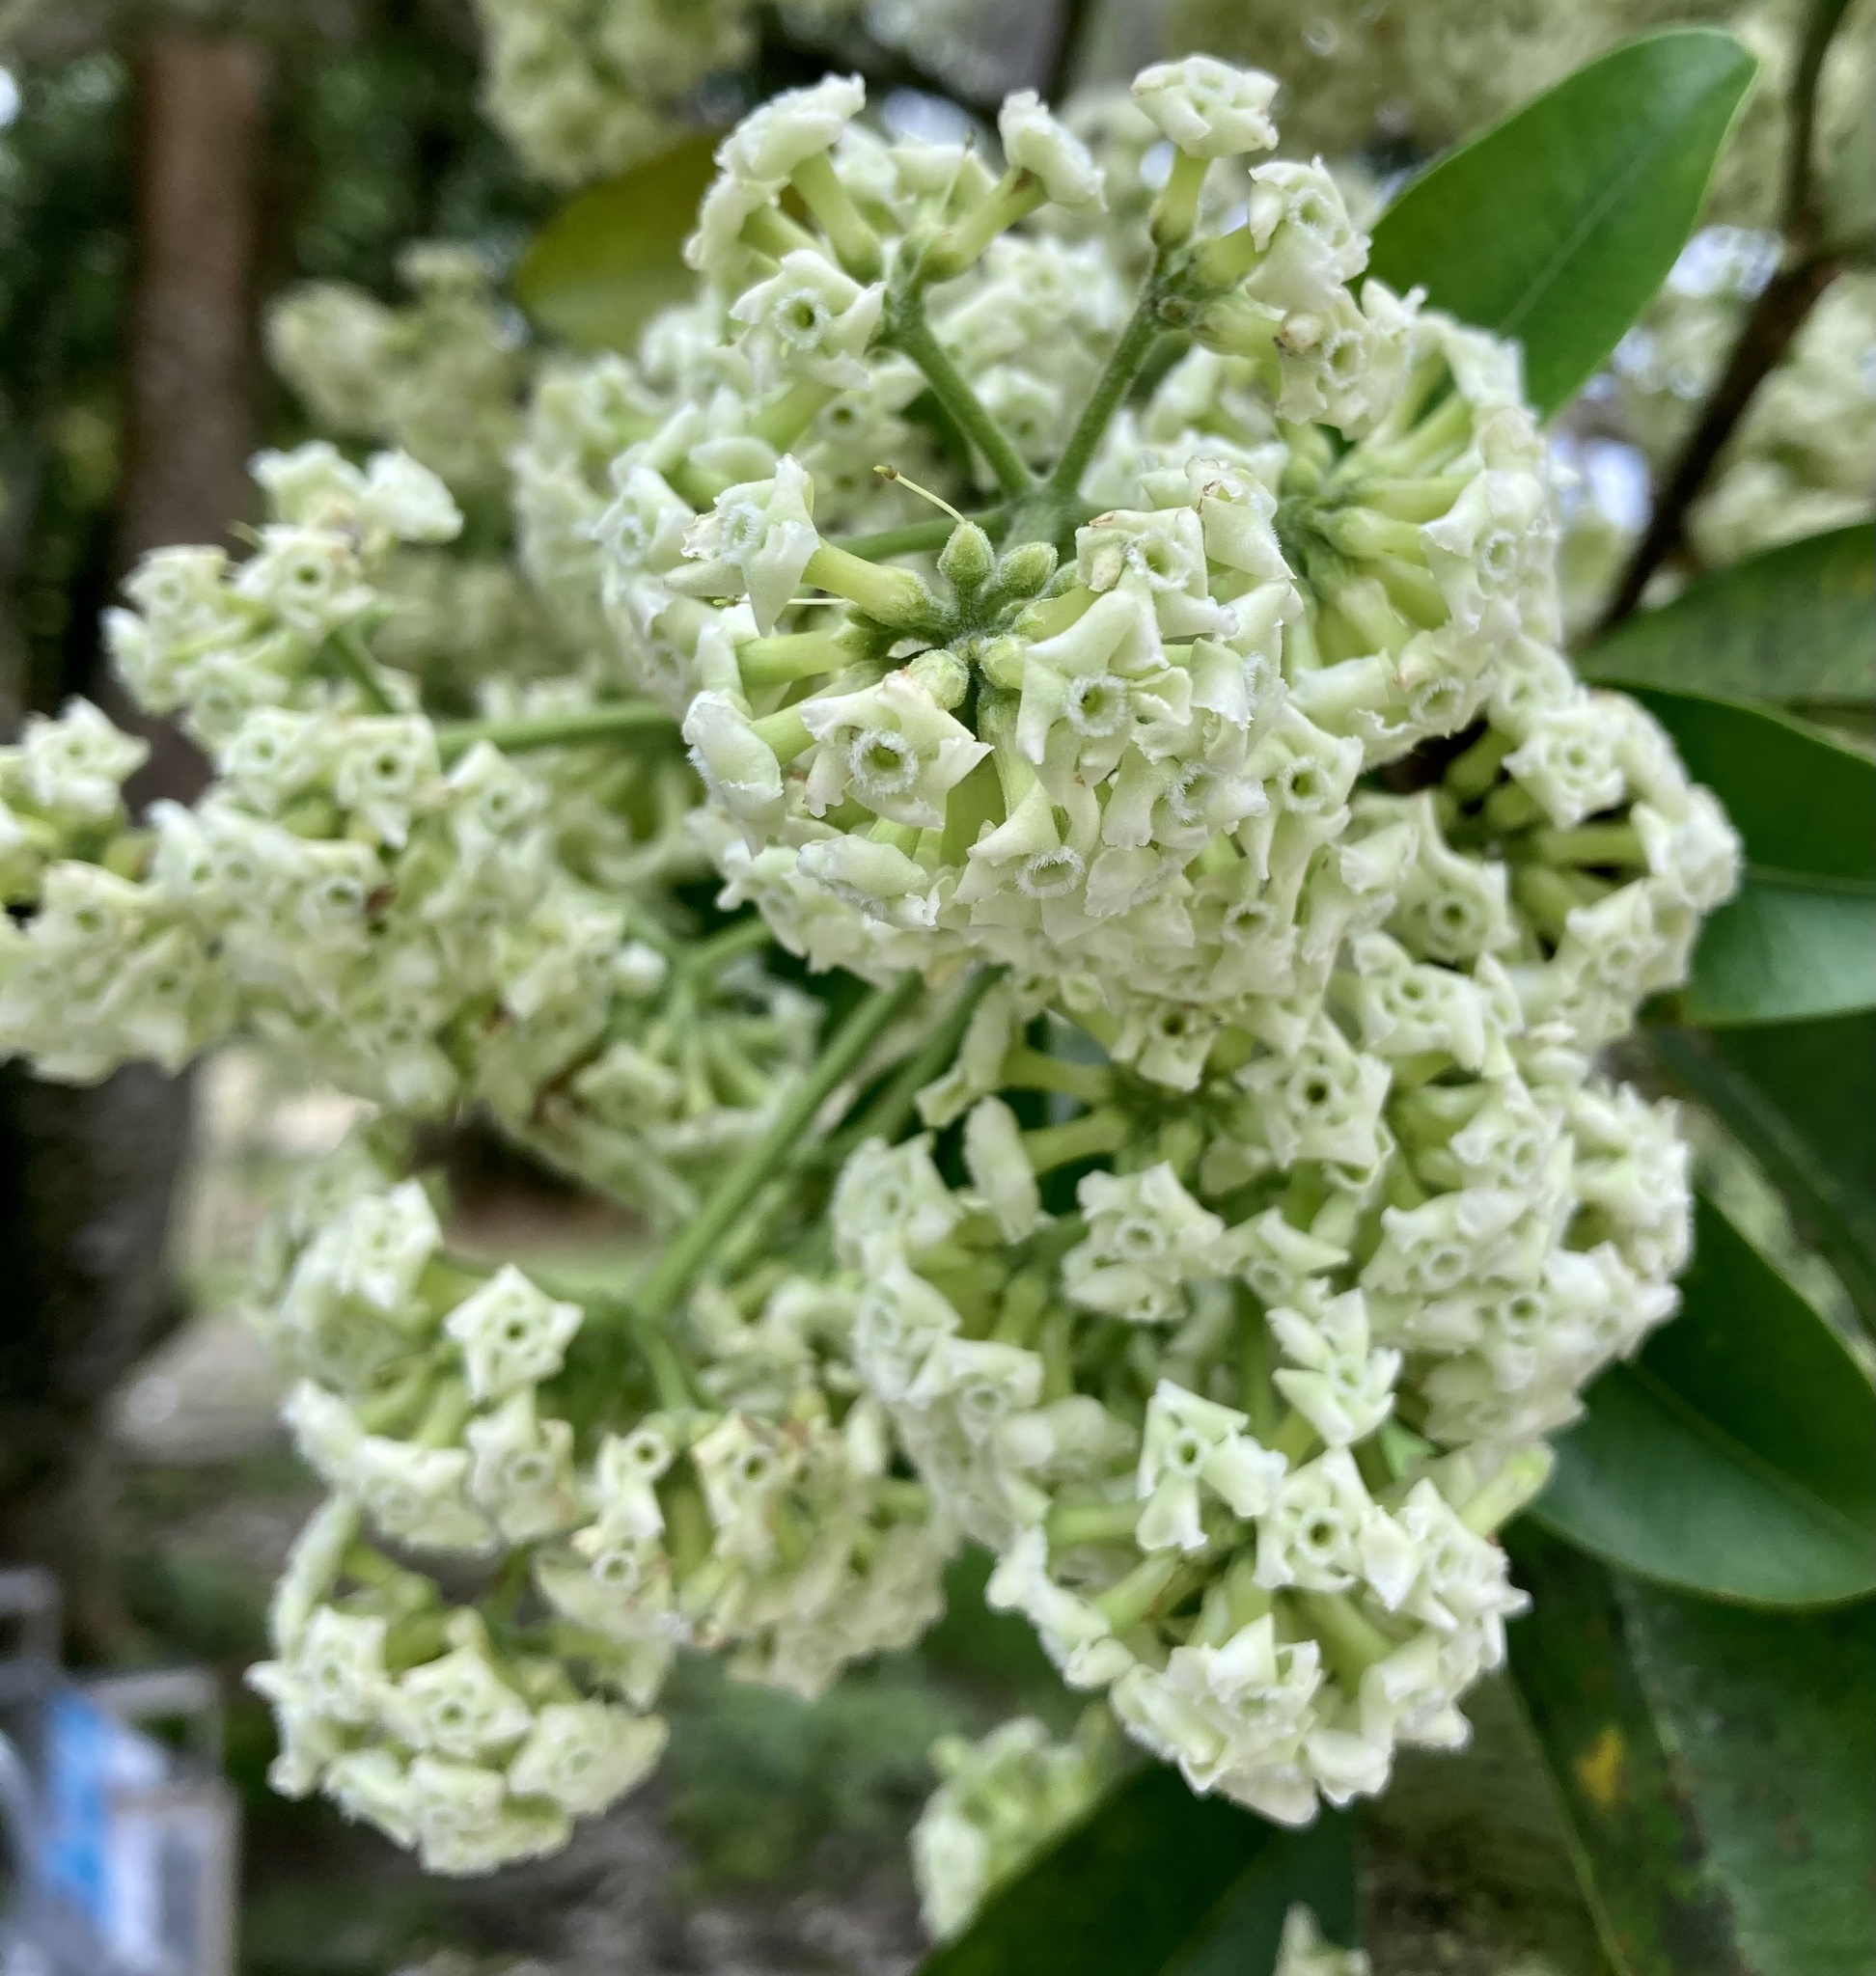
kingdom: Plantae
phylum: Tracheophyta
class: Magnoliopsida
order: Gentianales
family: Apocynaceae
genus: Alstonia
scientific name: Alstonia scholaris
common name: White cheesewood
